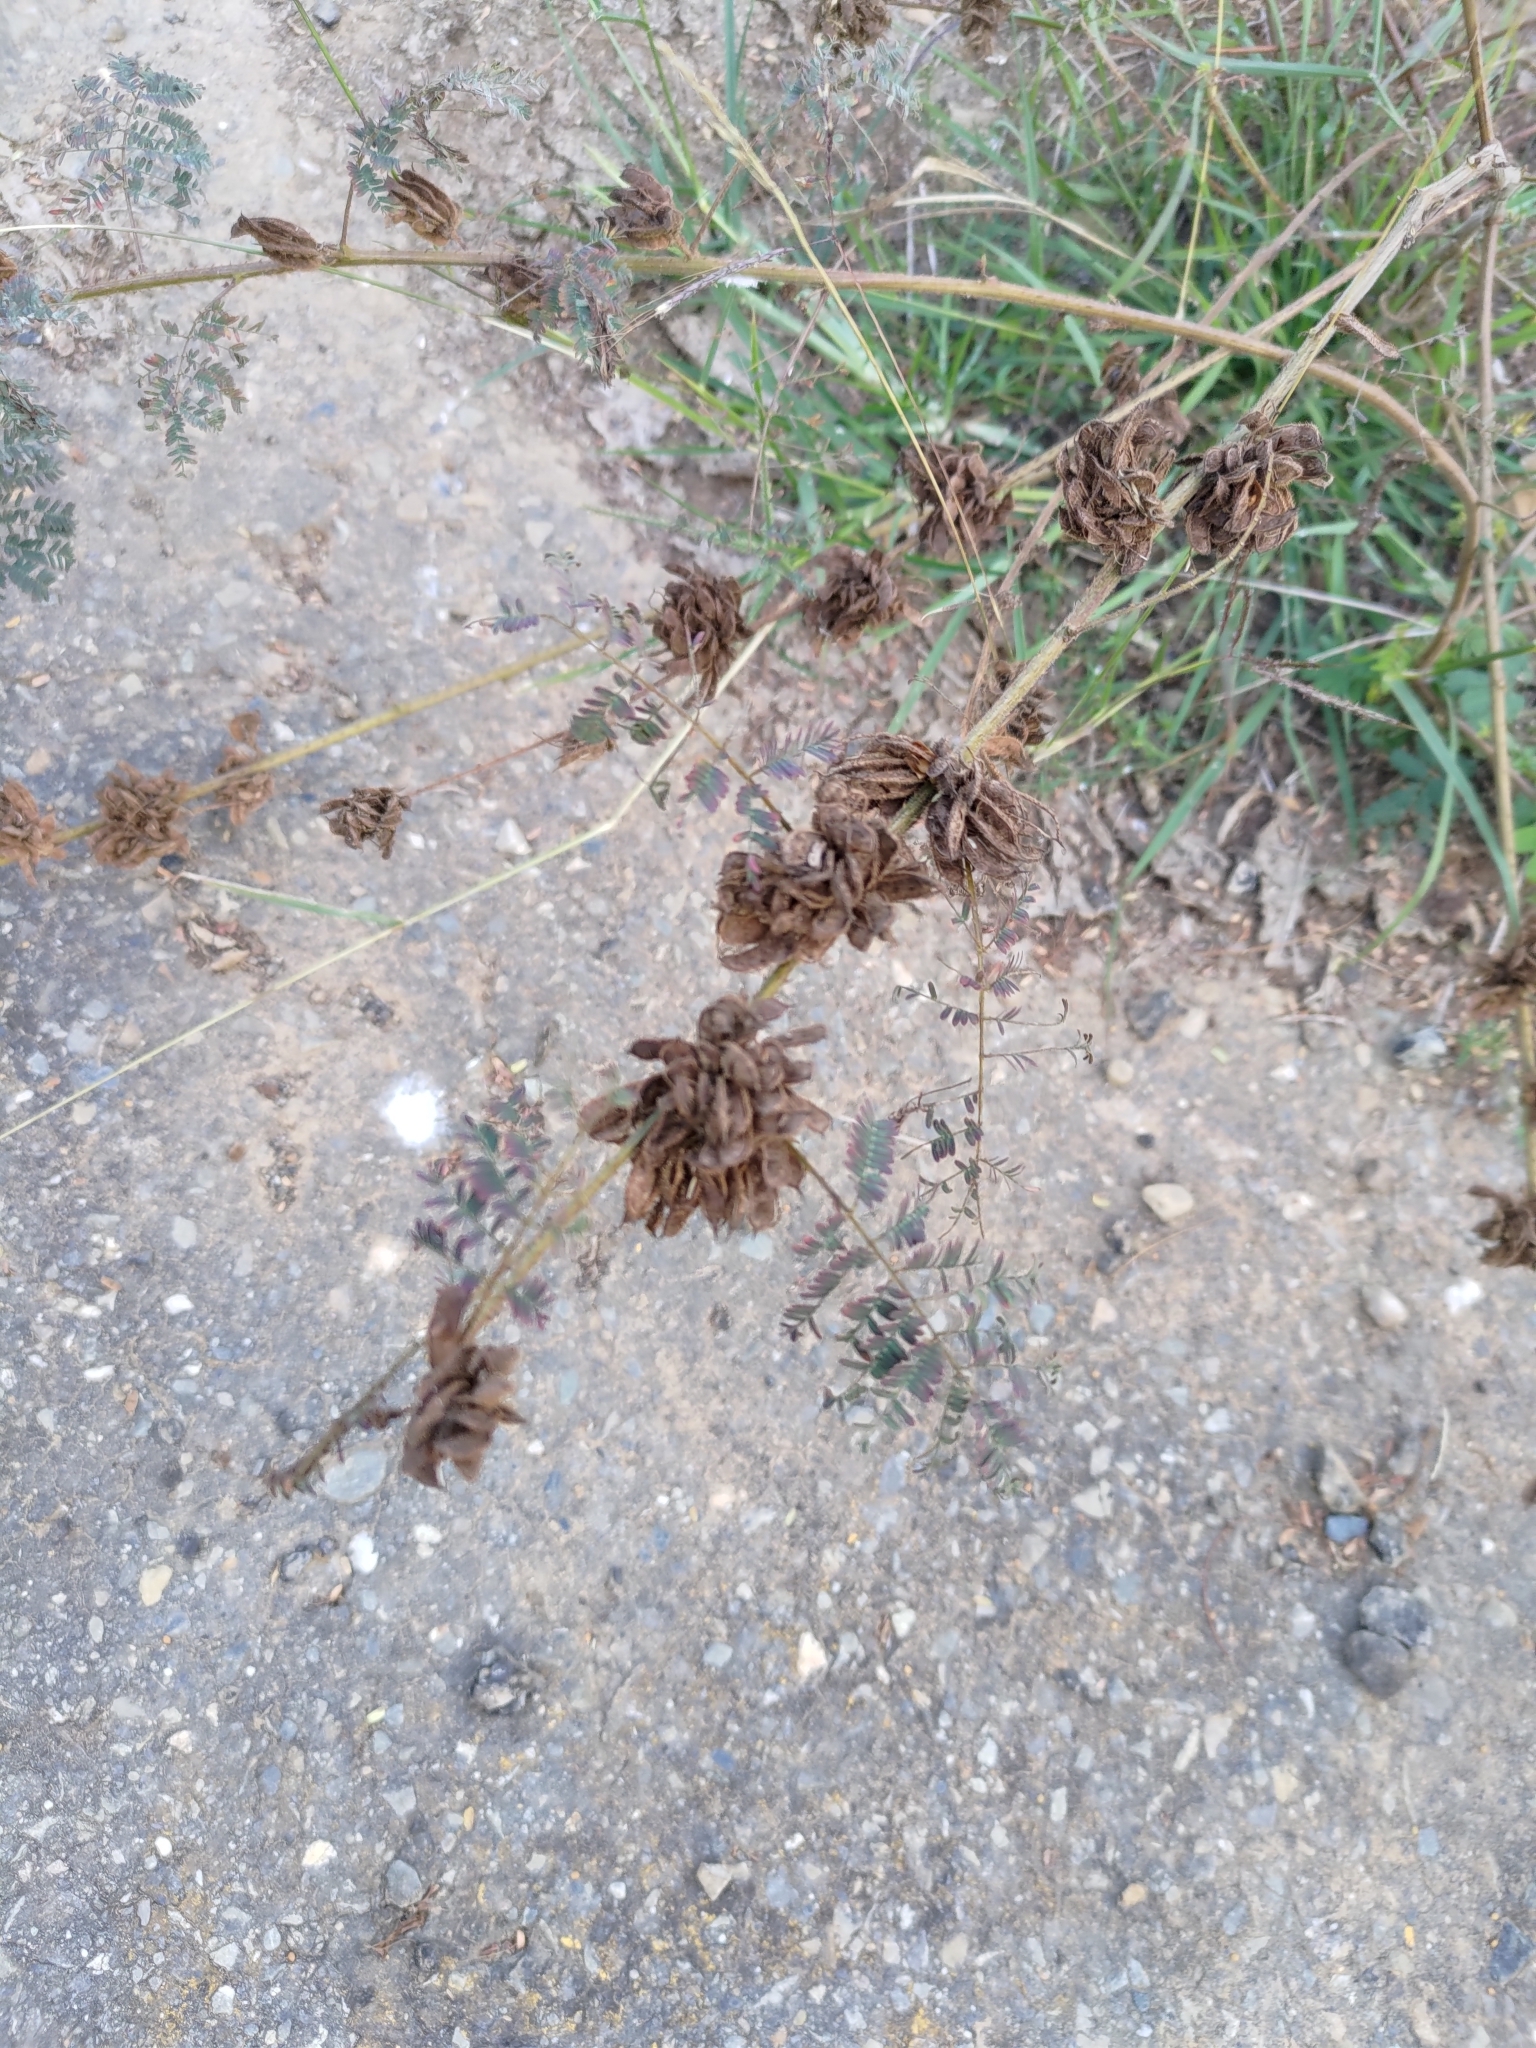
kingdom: Plantae
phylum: Tracheophyta
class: Magnoliopsida
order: Fabales
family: Fabaceae
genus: Mimosa
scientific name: Mimosa diplotricha
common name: Giant sensitive-plant
